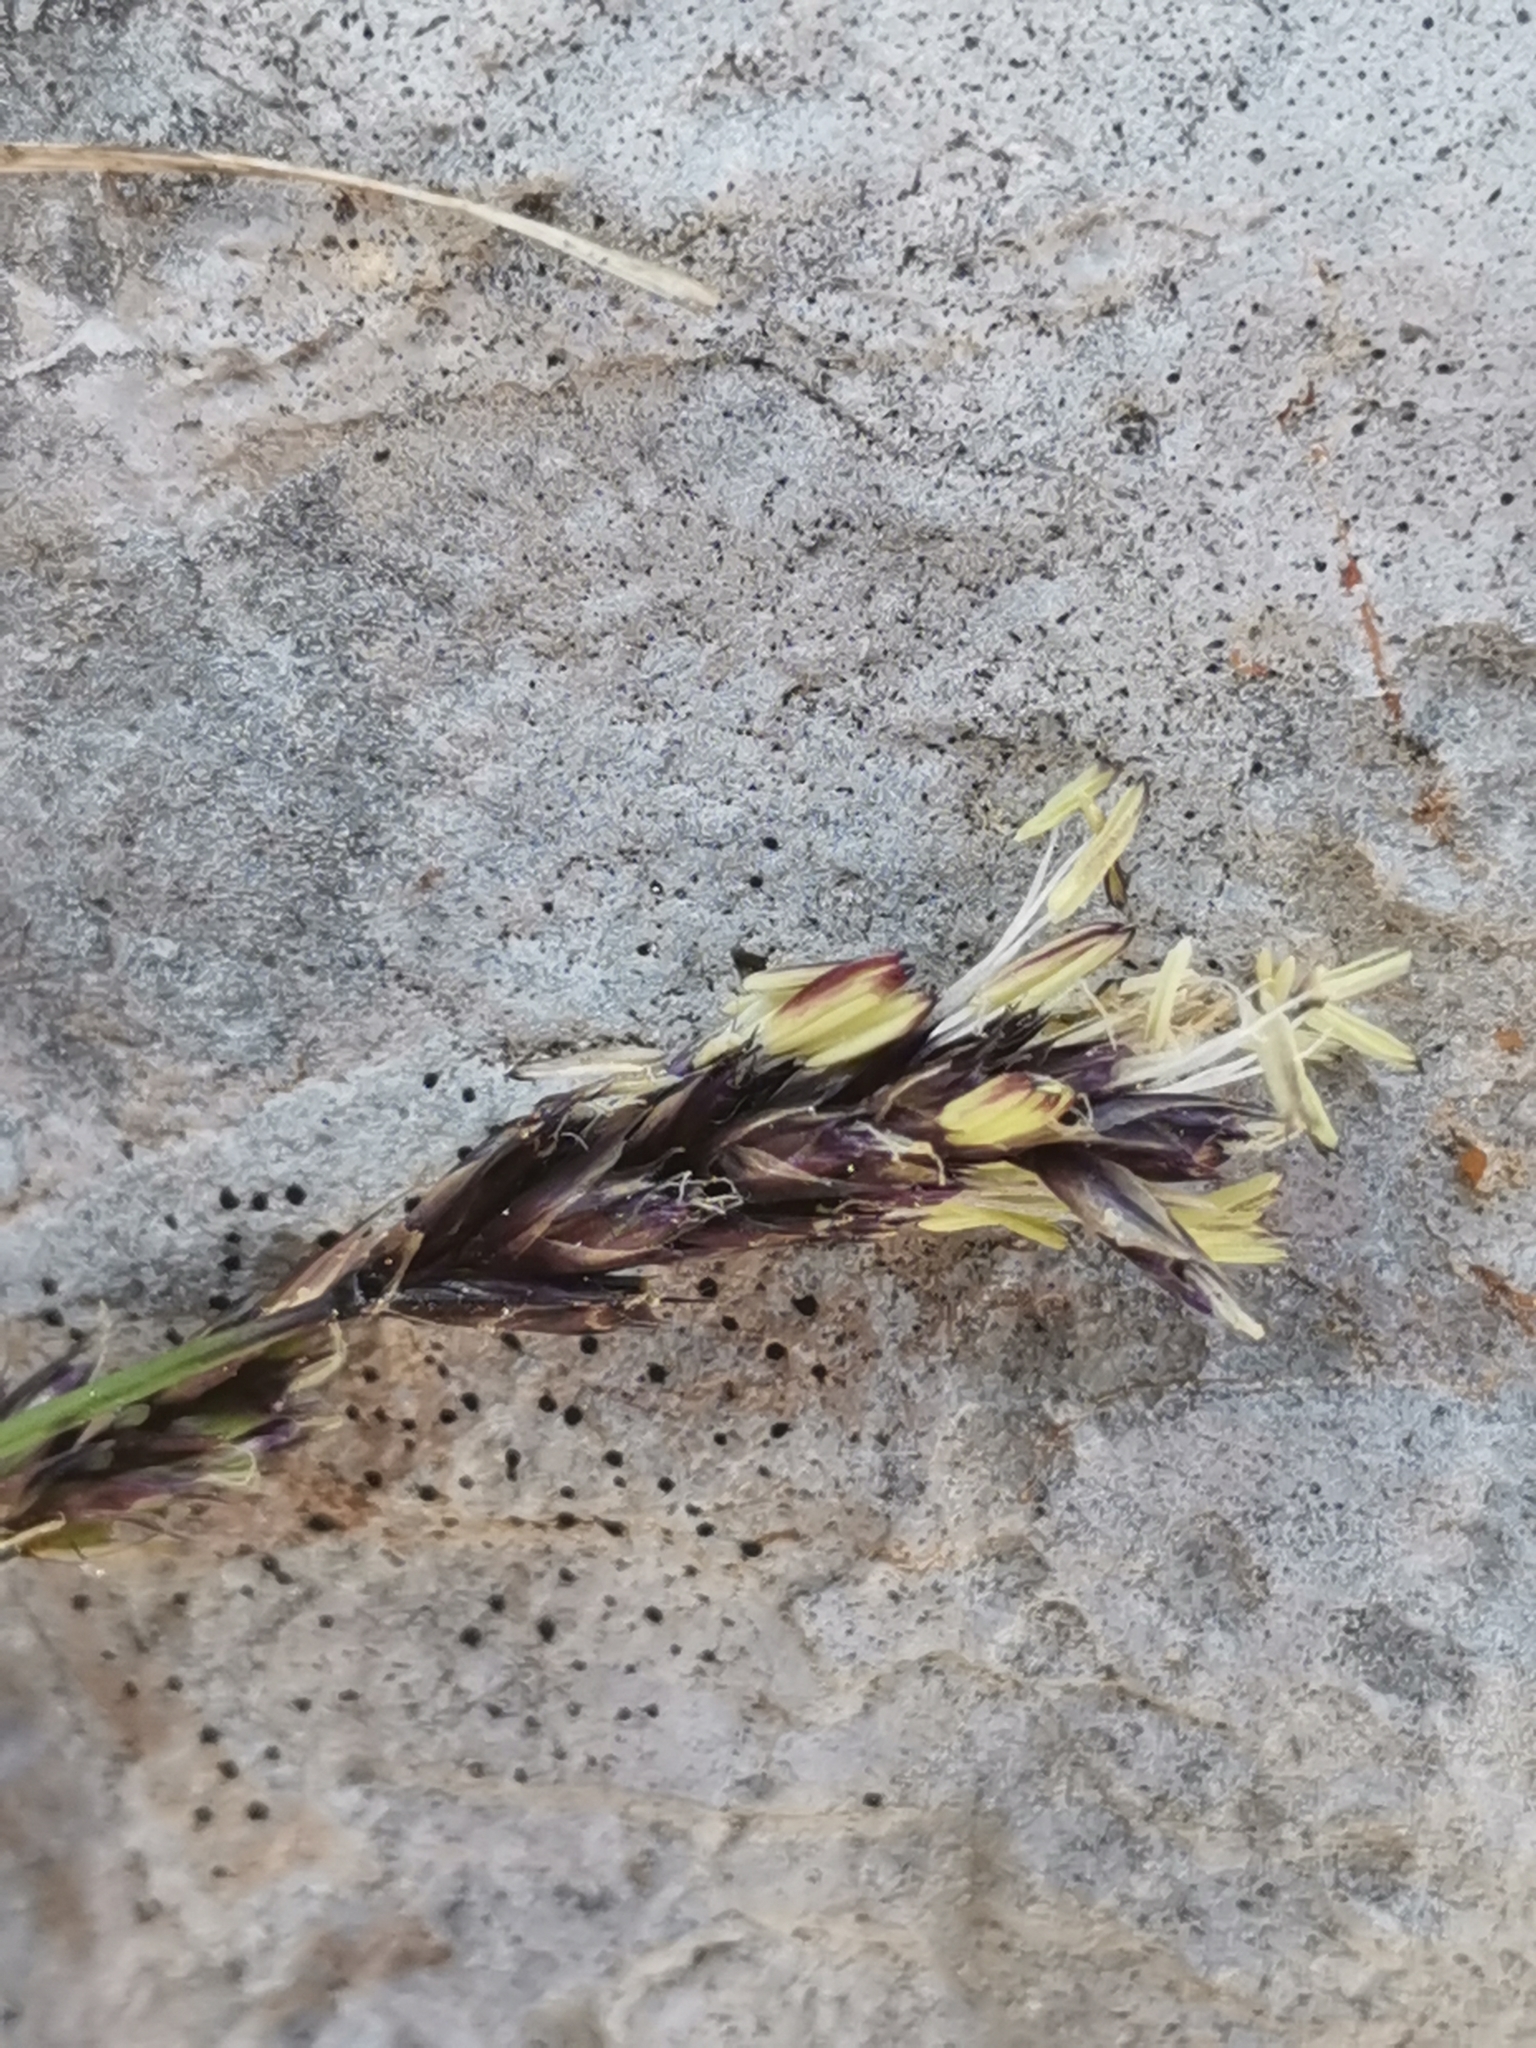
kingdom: Plantae
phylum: Tracheophyta
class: Liliopsida
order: Poales
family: Poaceae
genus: Sesleria
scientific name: Sesleria caerulea
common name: Blue moor-grass
